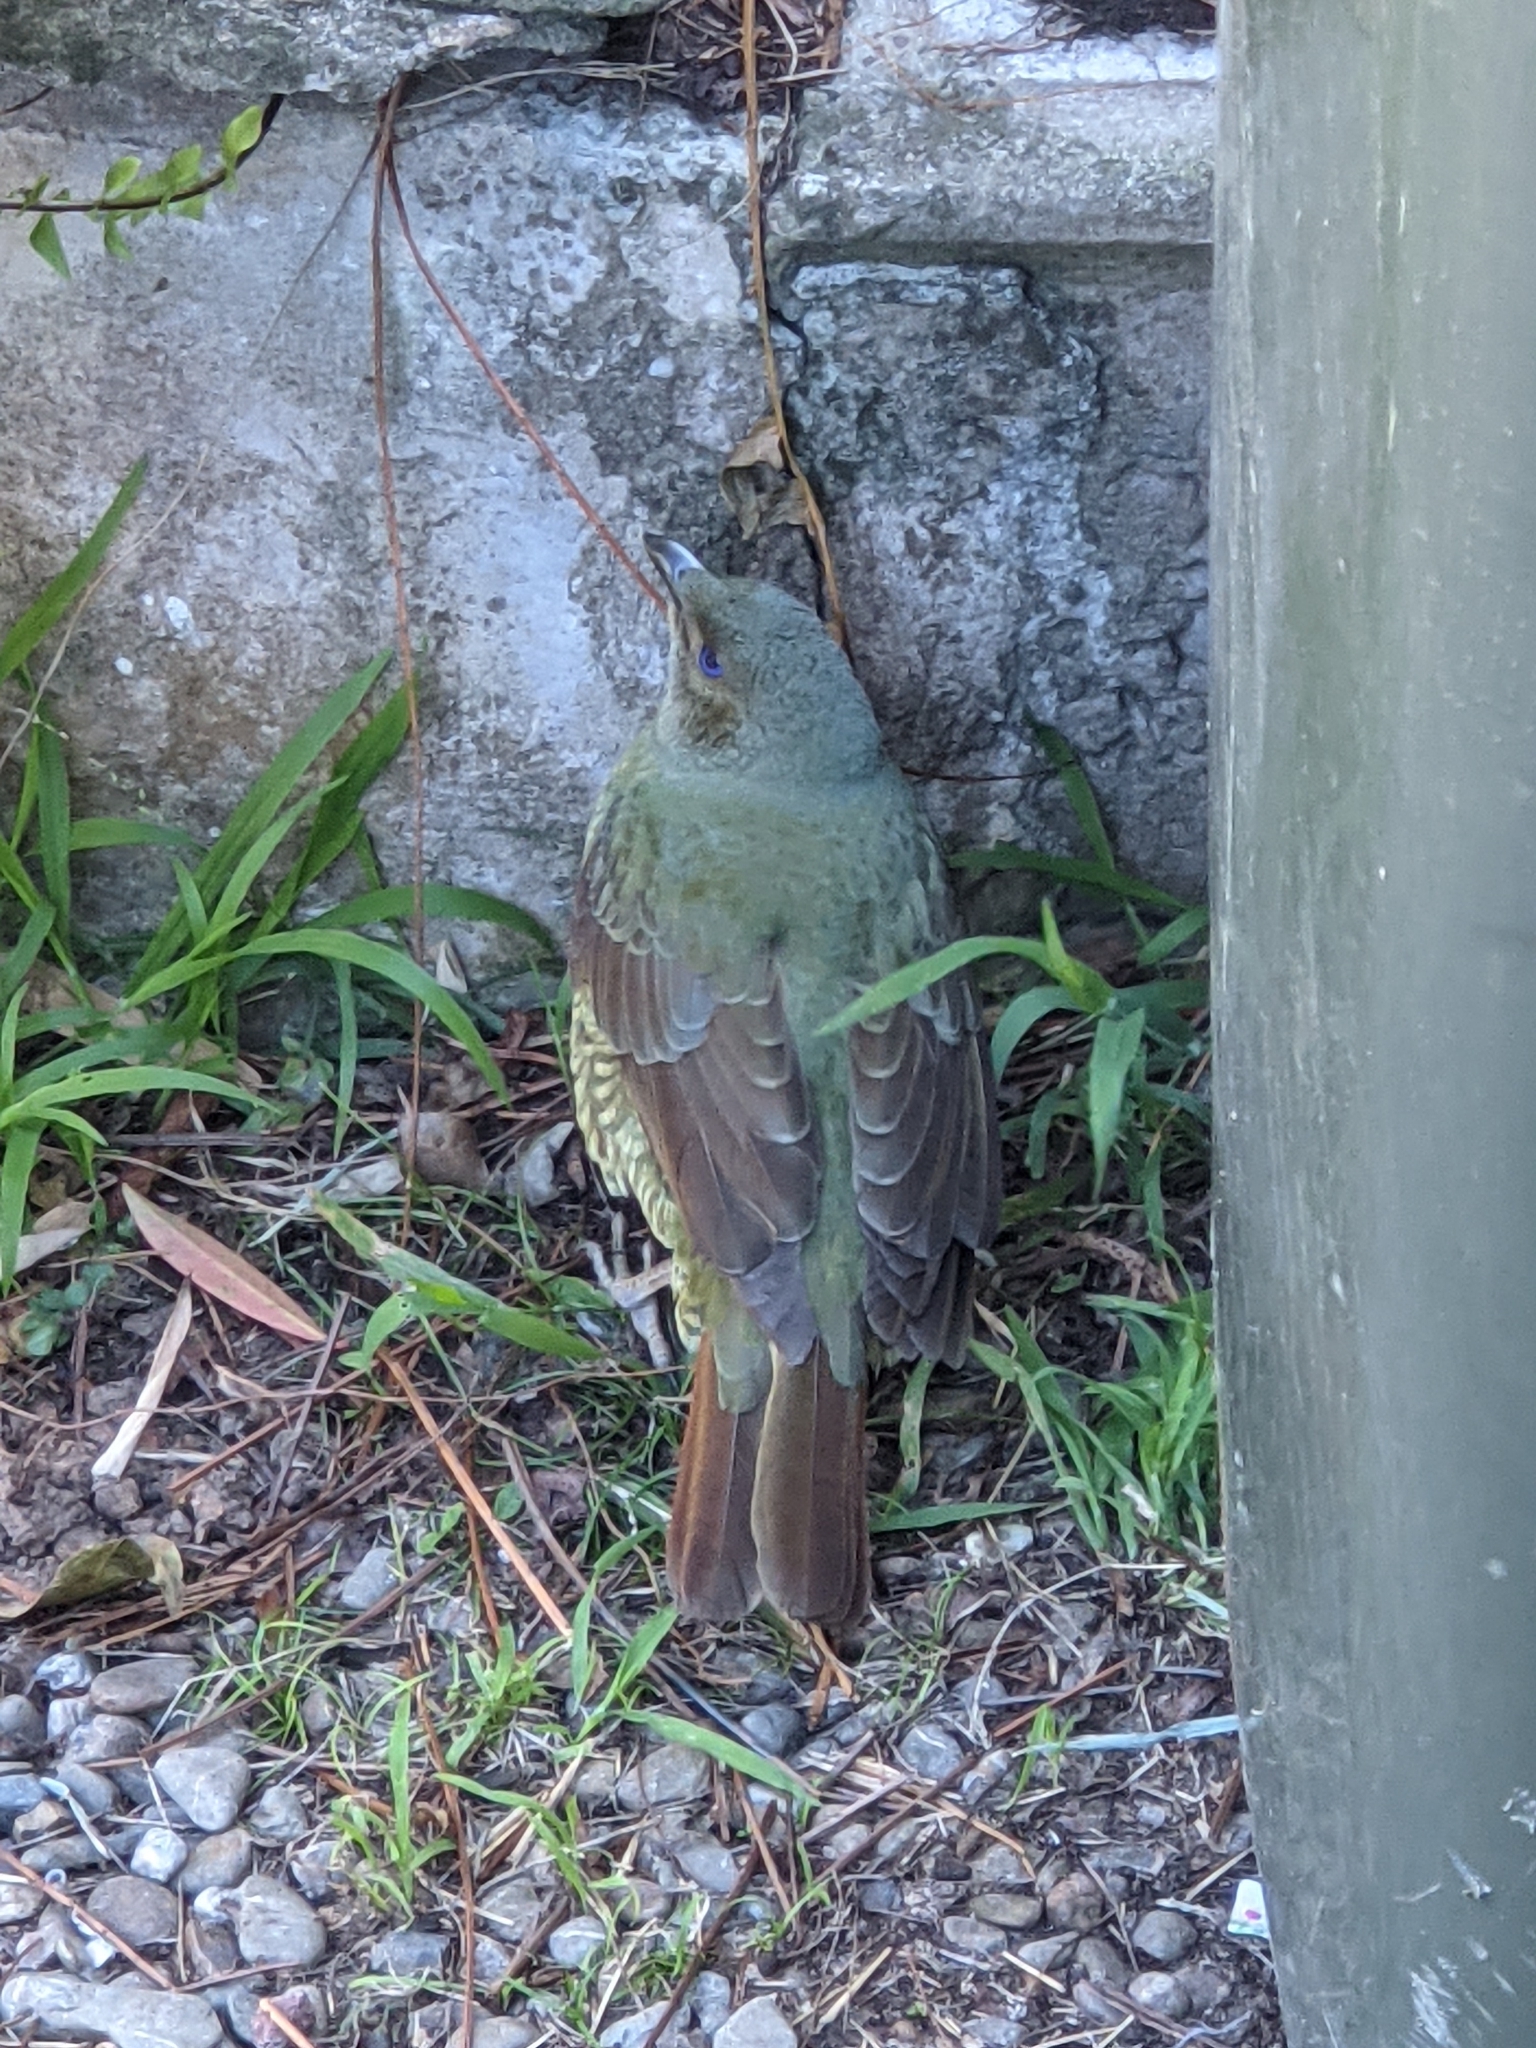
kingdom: Animalia
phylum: Chordata
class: Aves
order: Passeriformes
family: Ptilonorhynchidae
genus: Ptilonorhynchus
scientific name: Ptilonorhynchus violaceus
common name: Satin bowerbird
